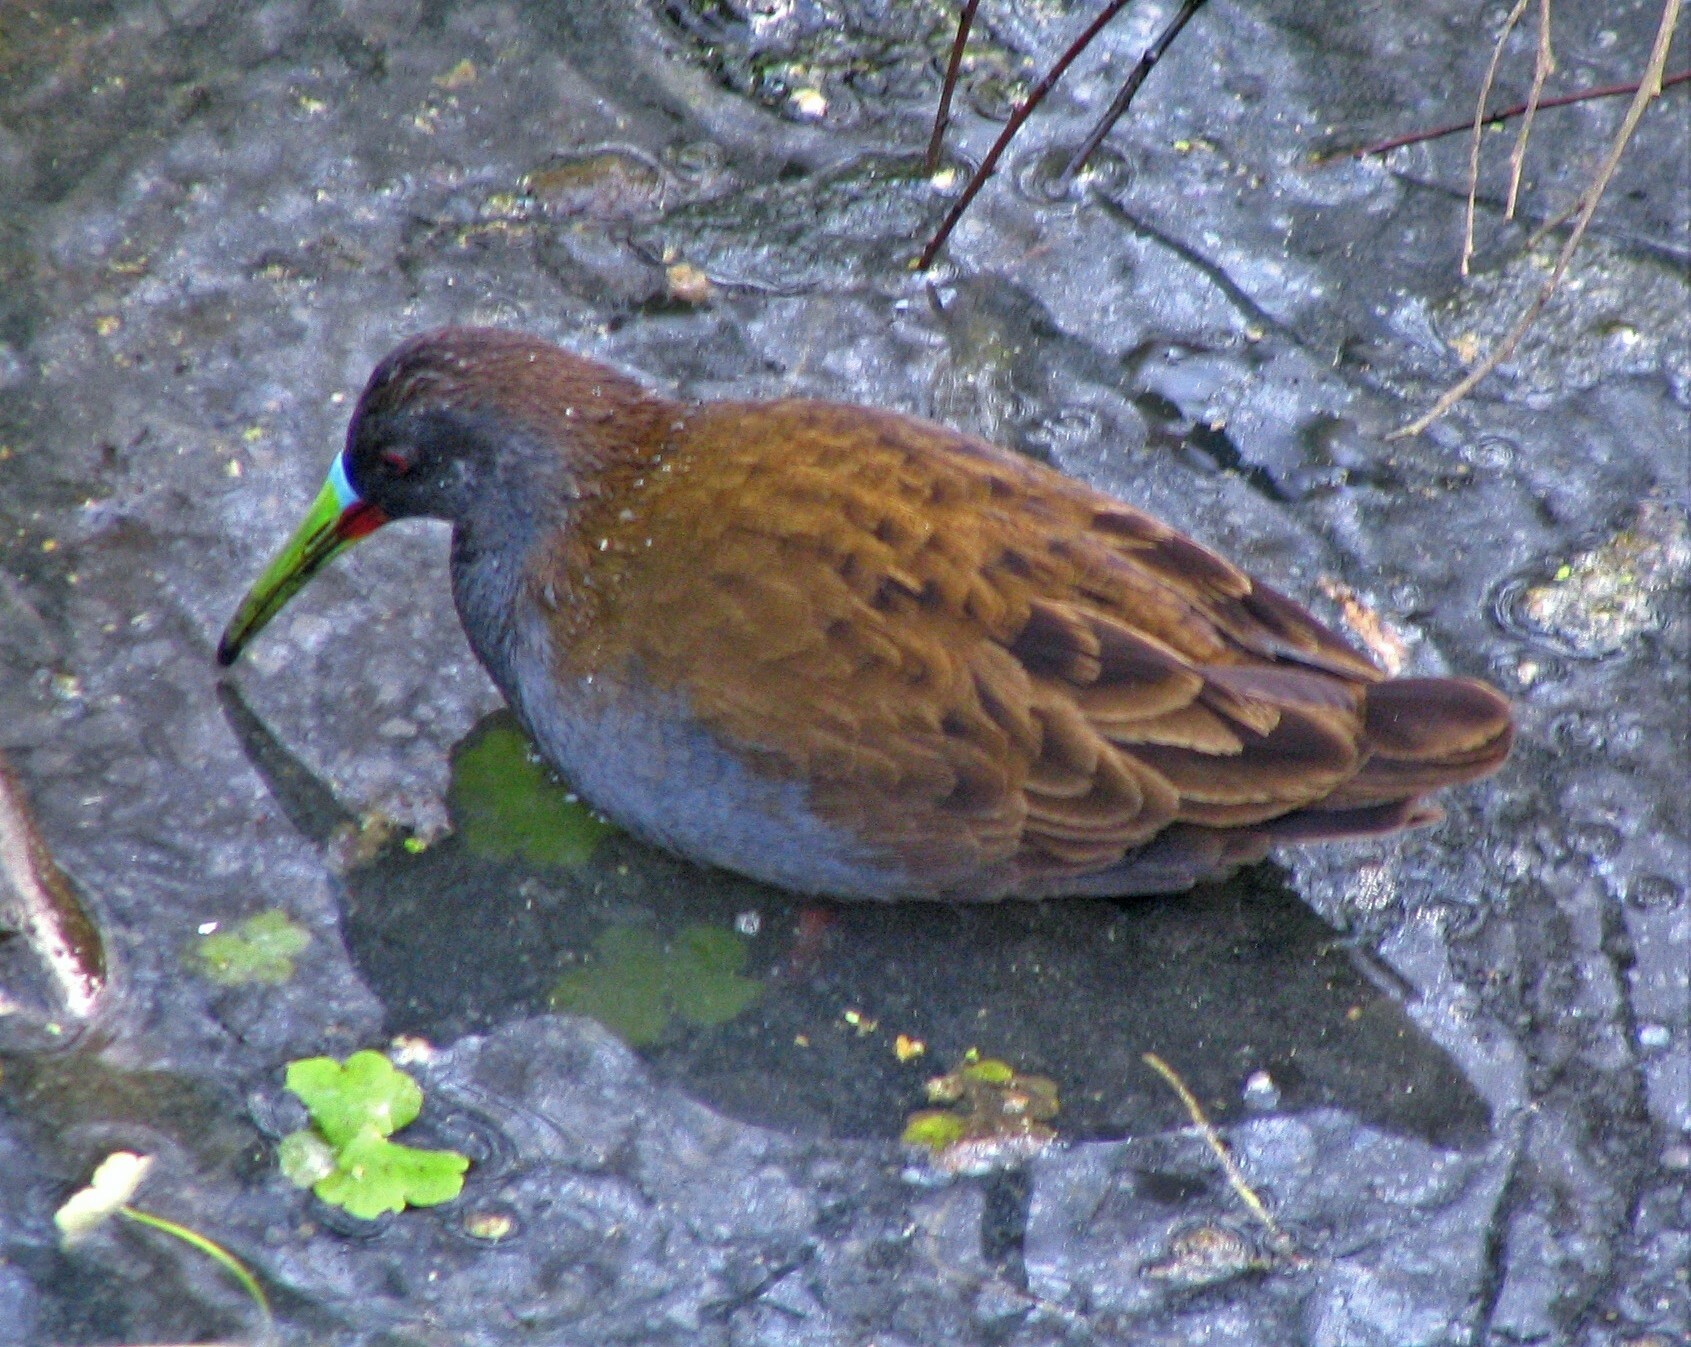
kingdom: Animalia
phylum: Chordata
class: Aves
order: Gruiformes
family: Rallidae
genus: Pardirallus
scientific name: Pardirallus sanguinolentus
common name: Plumbeous rail
